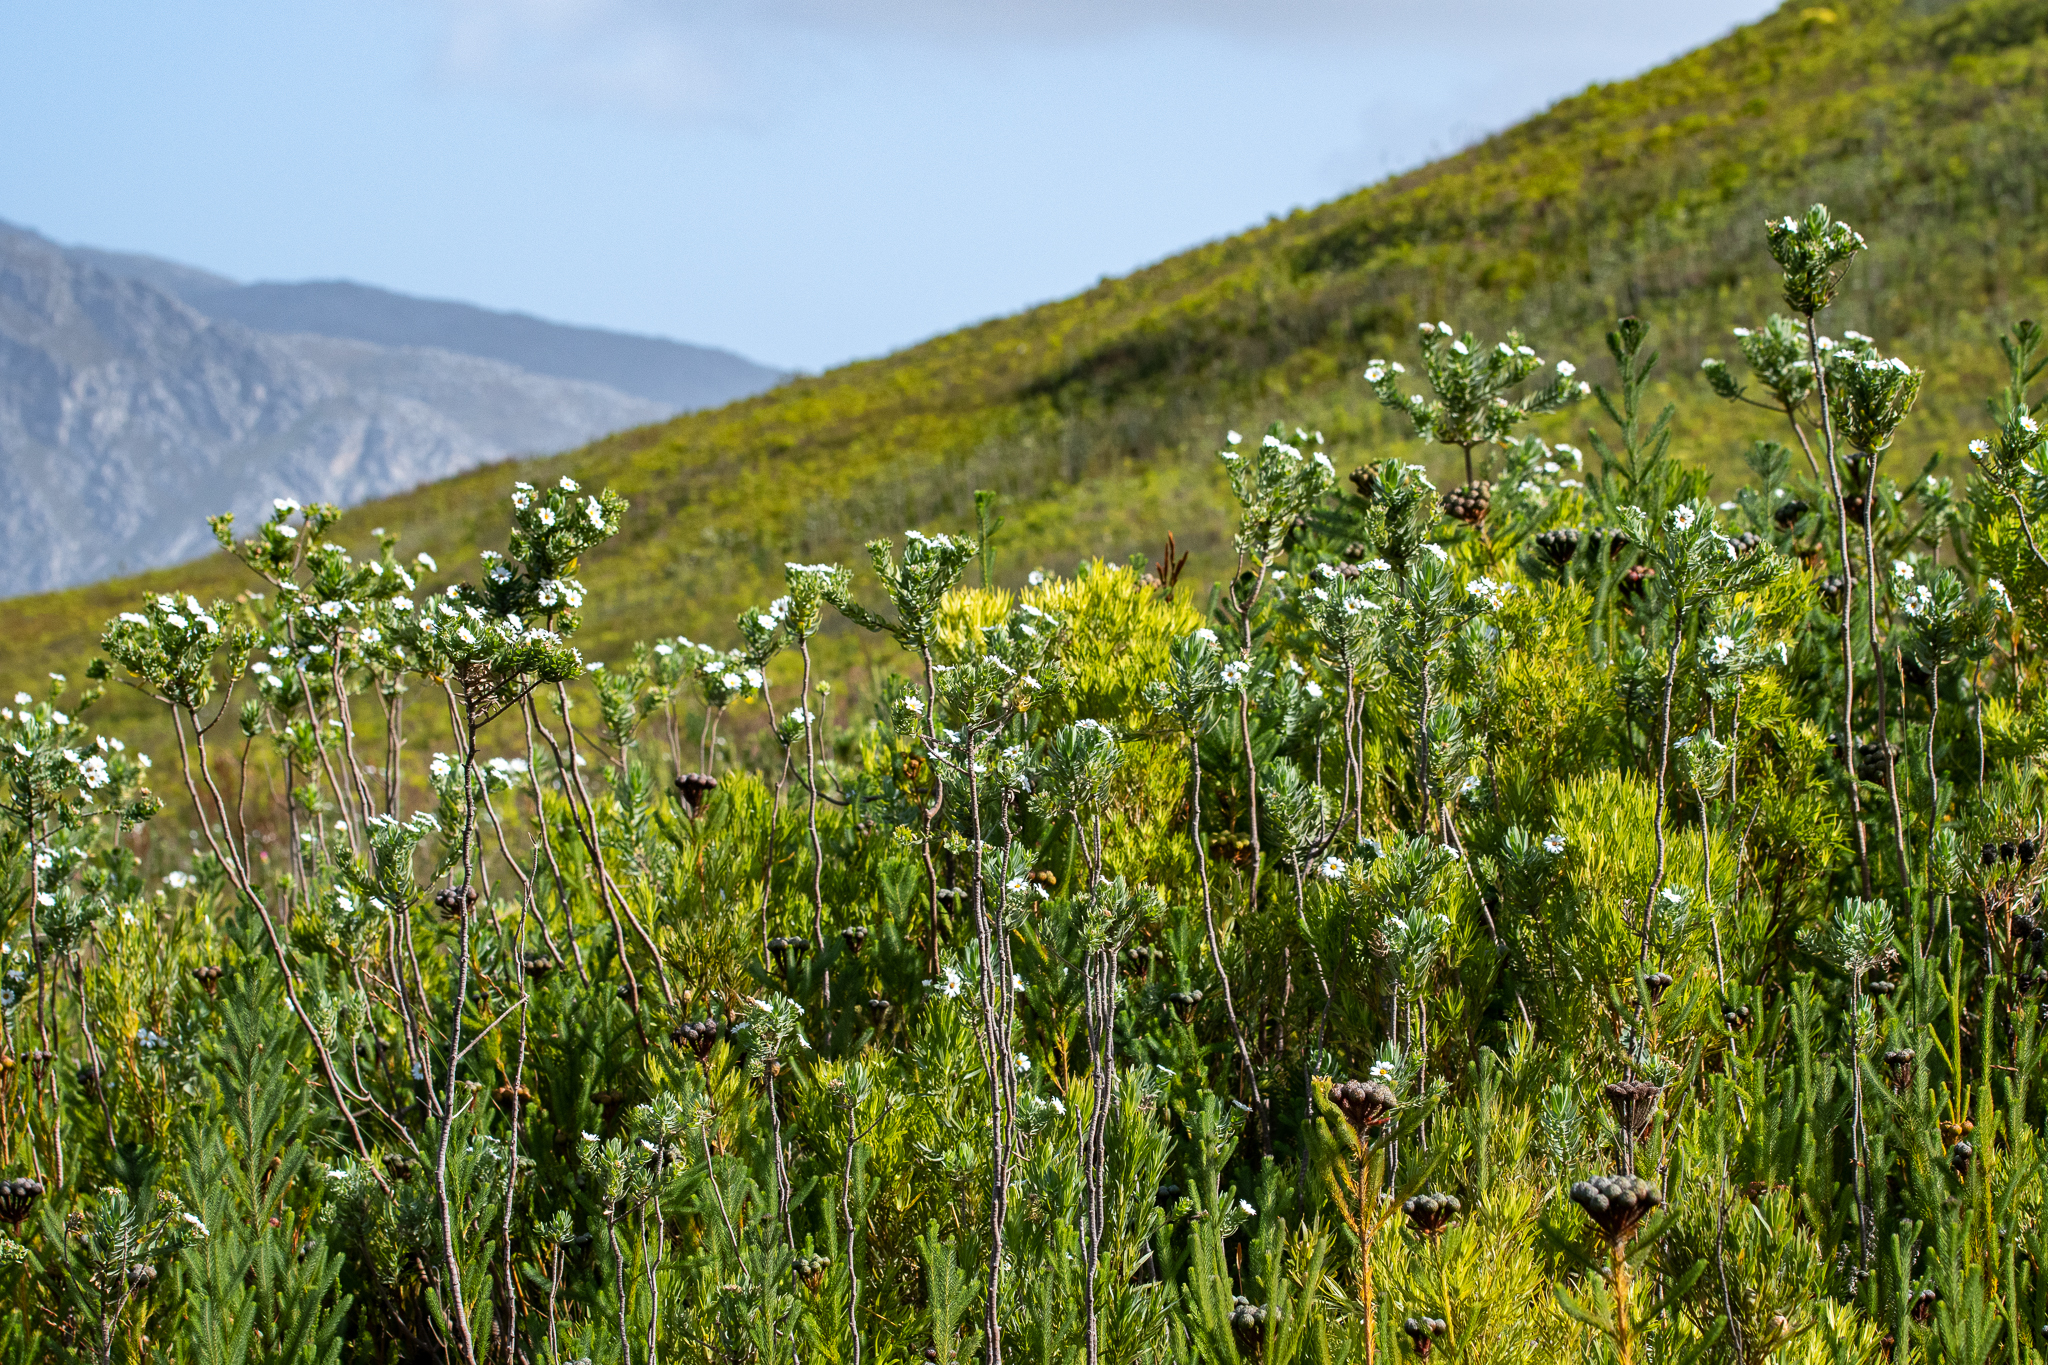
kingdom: Plantae
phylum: Tracheophyta
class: Magnoliopsida
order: Asterales
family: Asteraceae
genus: Osmitopsis
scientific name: Osmitopsis asteriscoides
